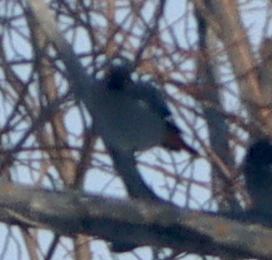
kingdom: Animalia
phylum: Chordata
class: Aves
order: Passeriformes
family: Bombycillidae
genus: Bombycilla
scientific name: Bombycilla garrulus
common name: Bohemian waxwing
